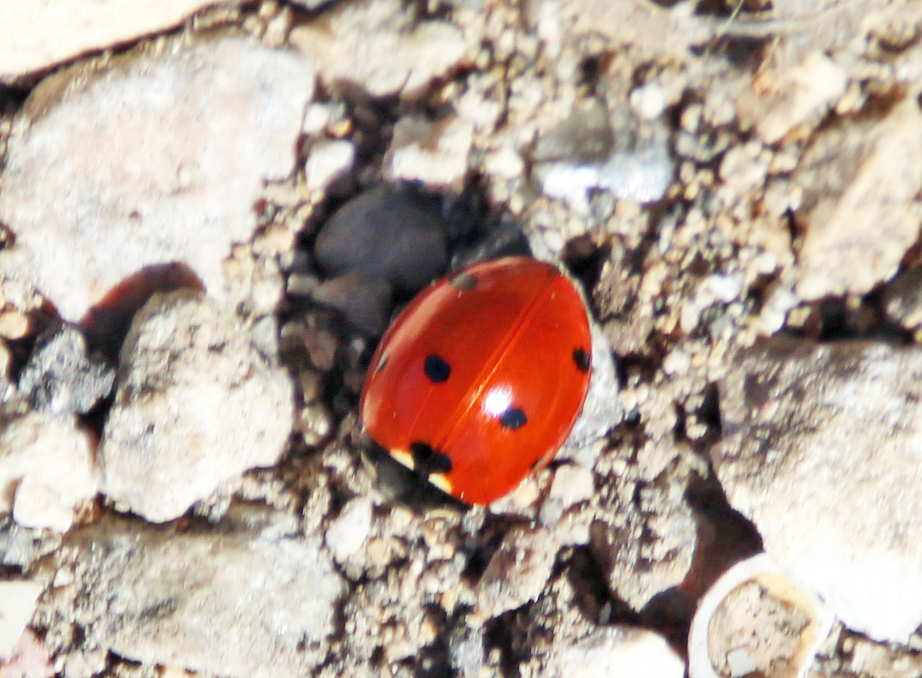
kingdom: Animalia
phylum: Arthropoda
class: Insecta
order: Coleoptera
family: Coccinellidae
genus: Coccinella
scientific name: Coccinella septempunctata
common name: Sevenspotted lady beetle
